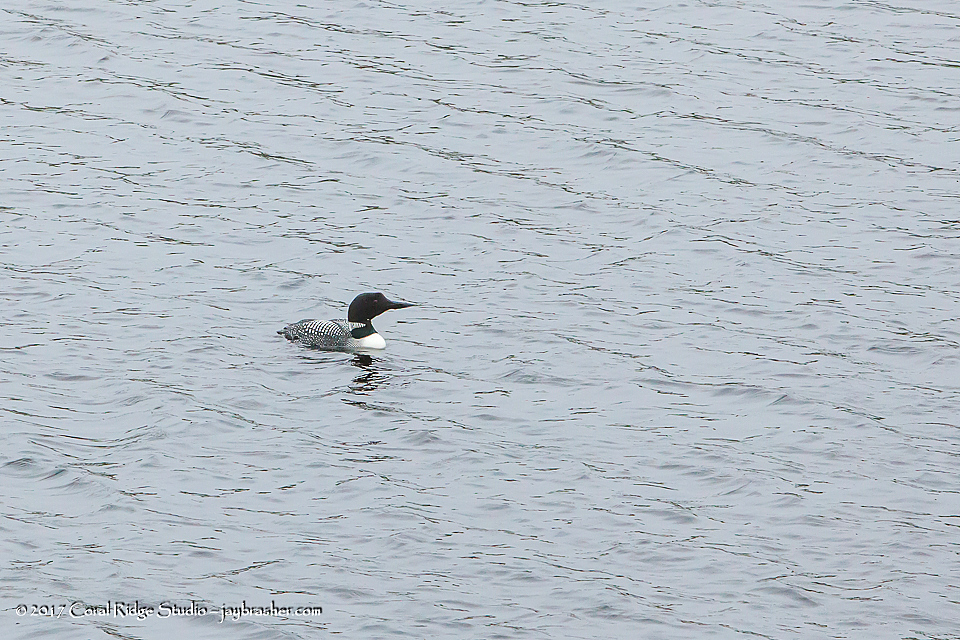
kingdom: Animalia
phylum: Chordata
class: Aves
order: Gaviiformes
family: Gaviidae
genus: Gavia
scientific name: Gavia immer
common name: Common loon
